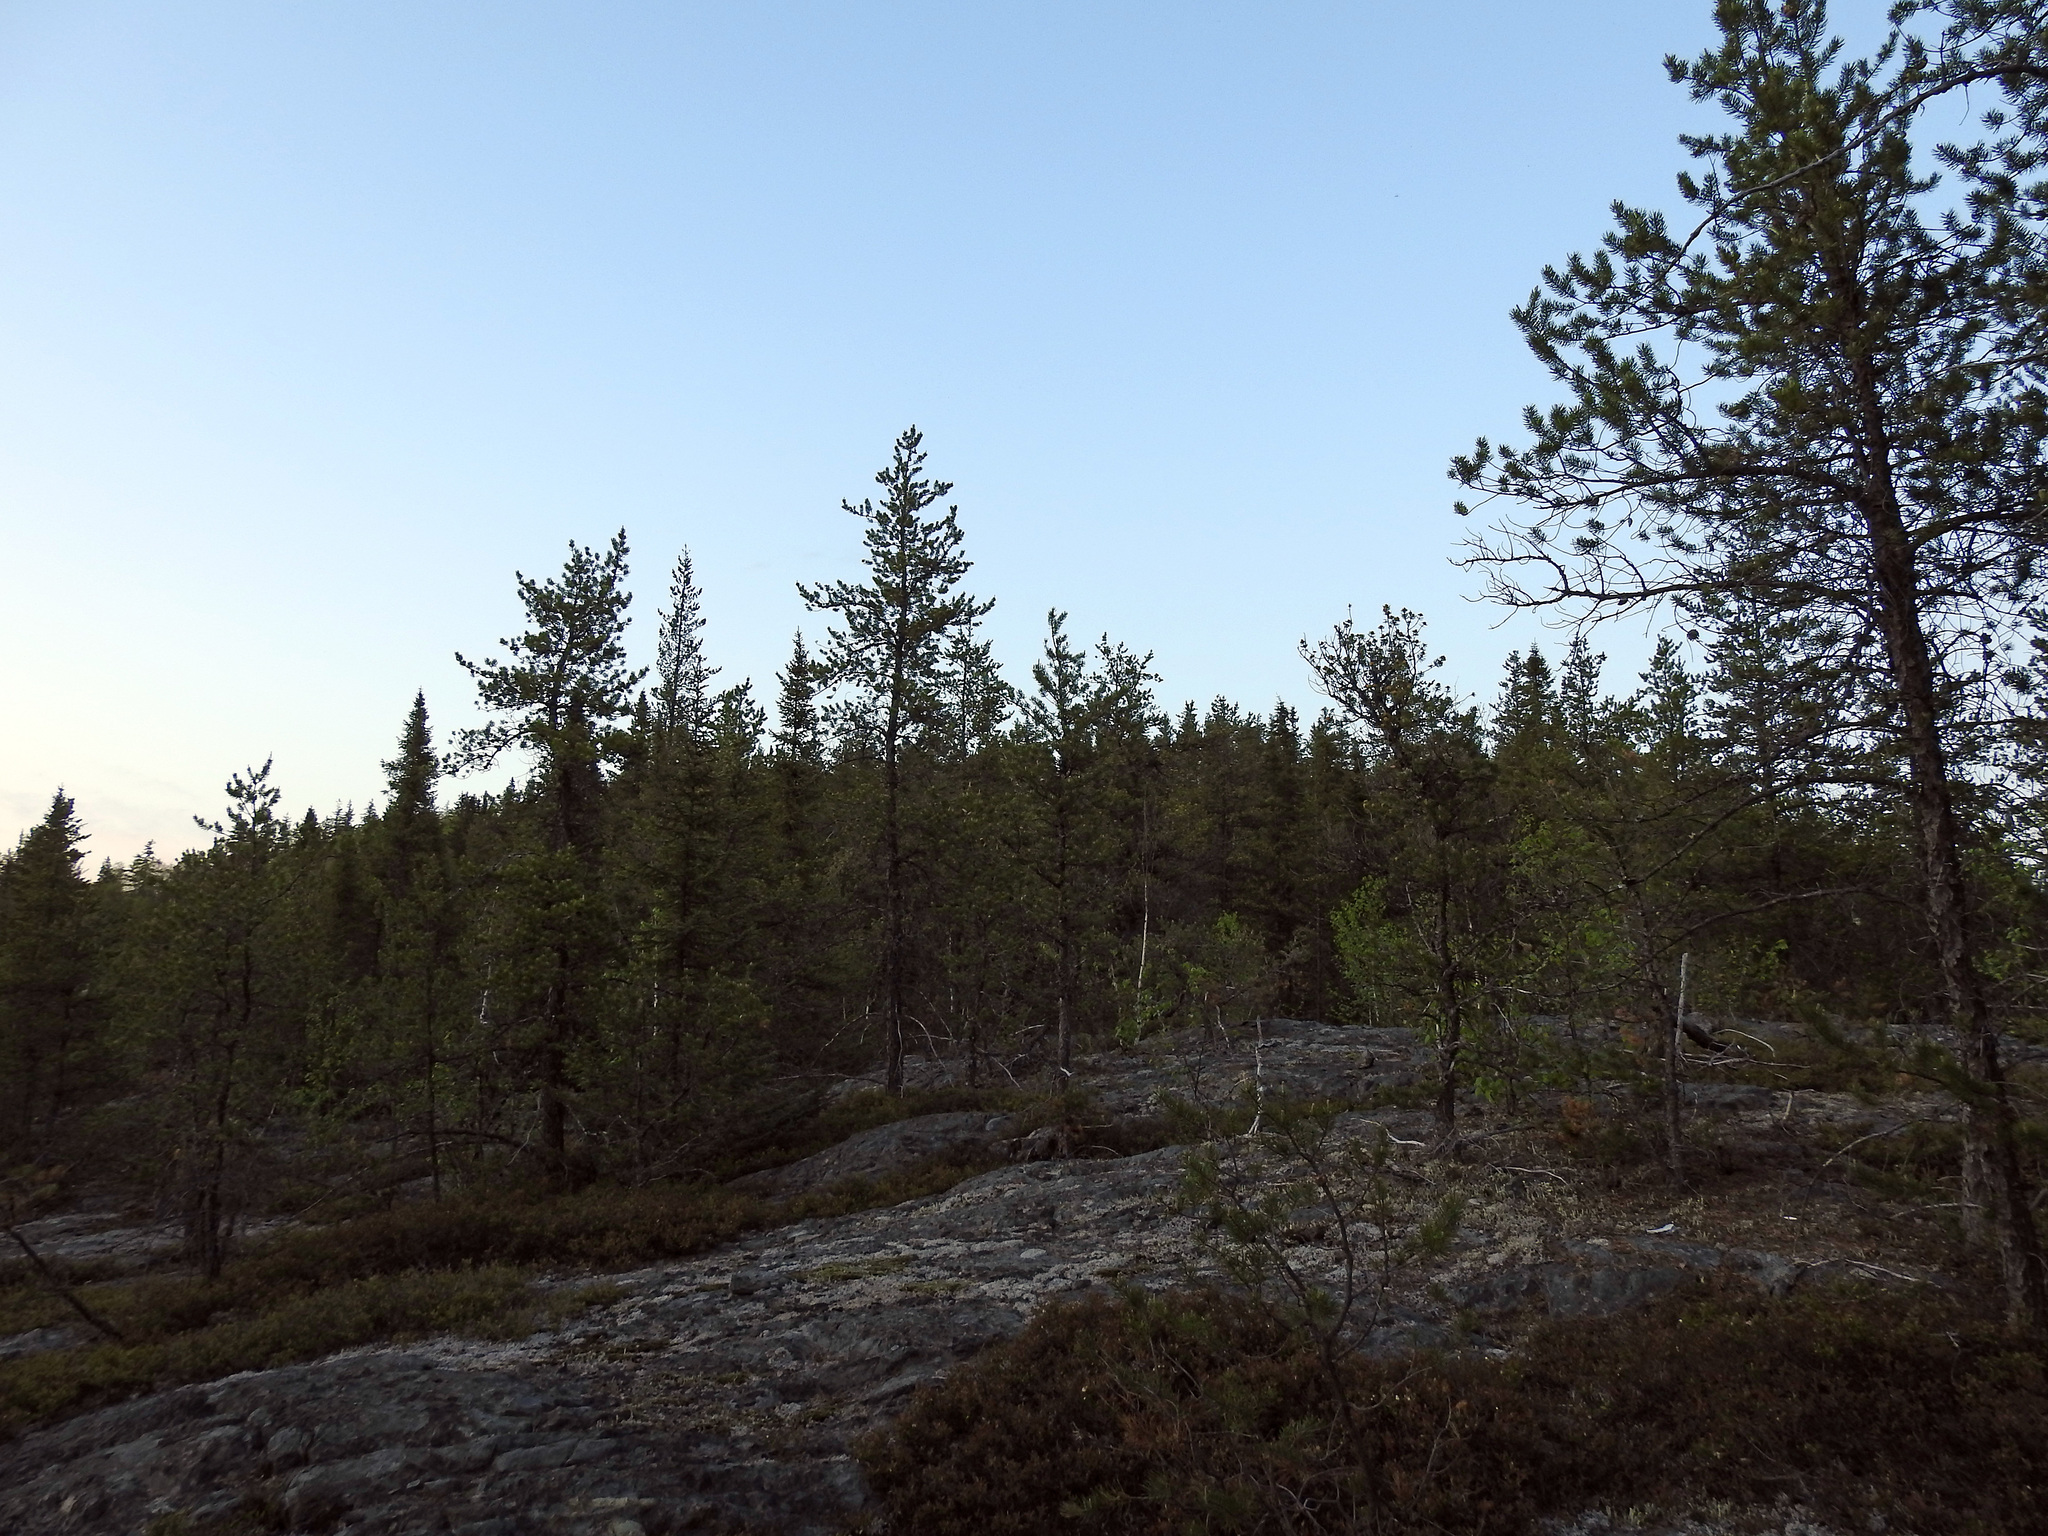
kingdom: Plantae
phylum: Tracheophyta
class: Pinopsida
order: Pinales
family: Pinaceae
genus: Pinus
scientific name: Pinus banksiana
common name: Jack pine
